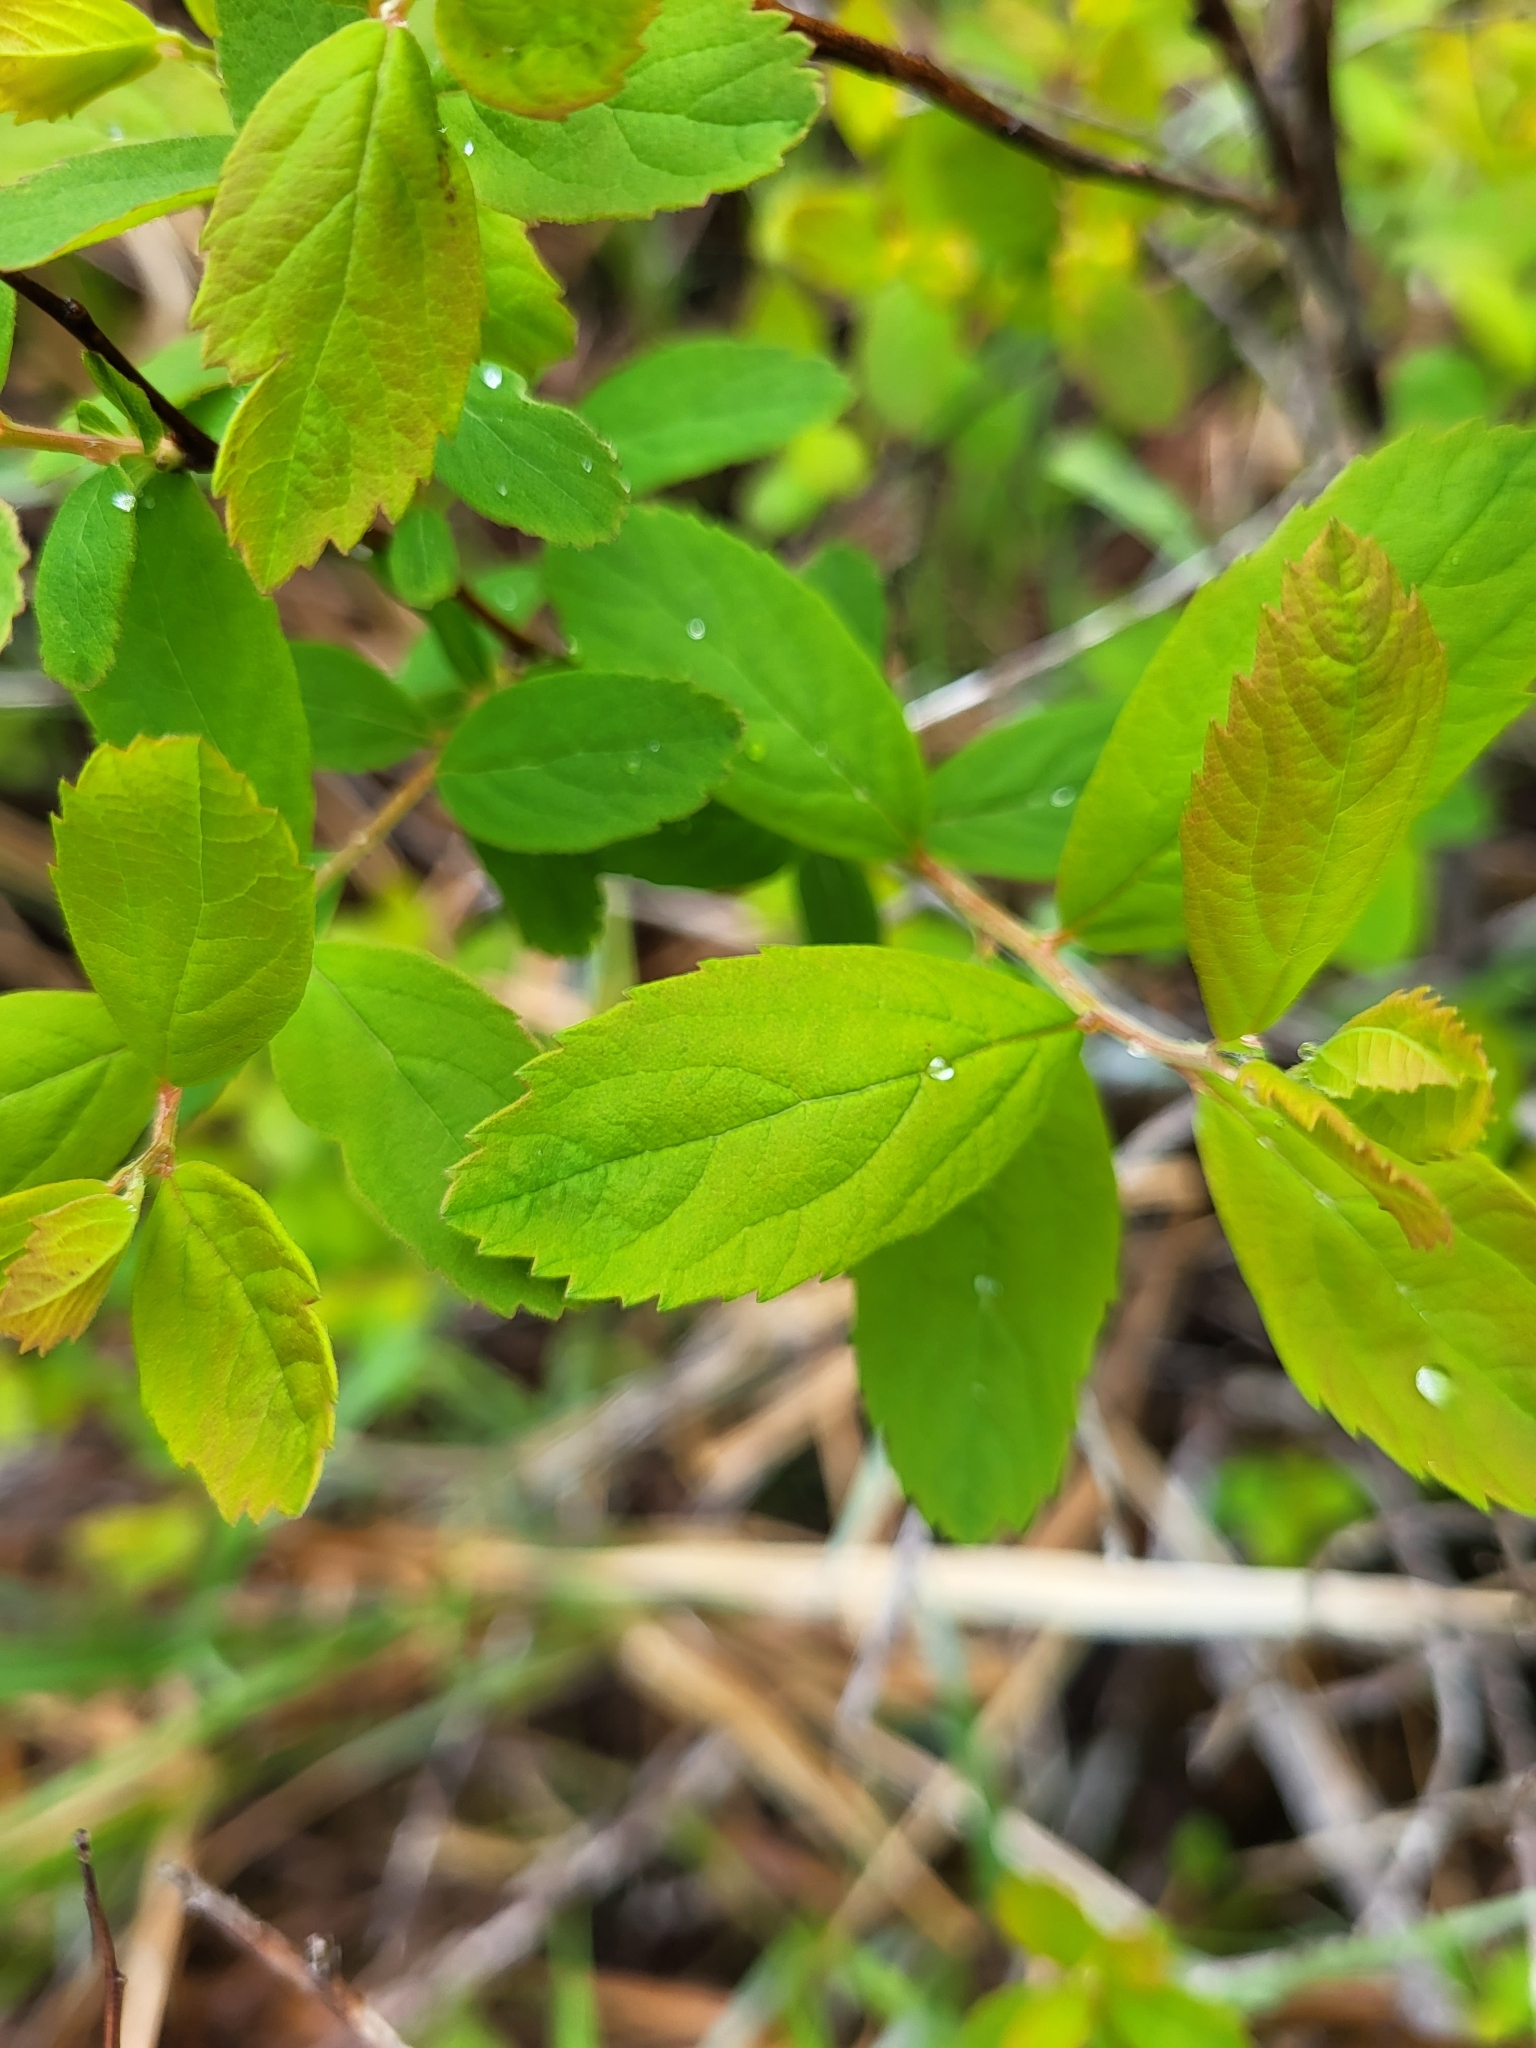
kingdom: Plantae
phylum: Tracheophyta
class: Magnoliopsida
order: Rosales
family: Rosaceae
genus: Spiraea
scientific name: Spiraea douglasii
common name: Steeplebush
